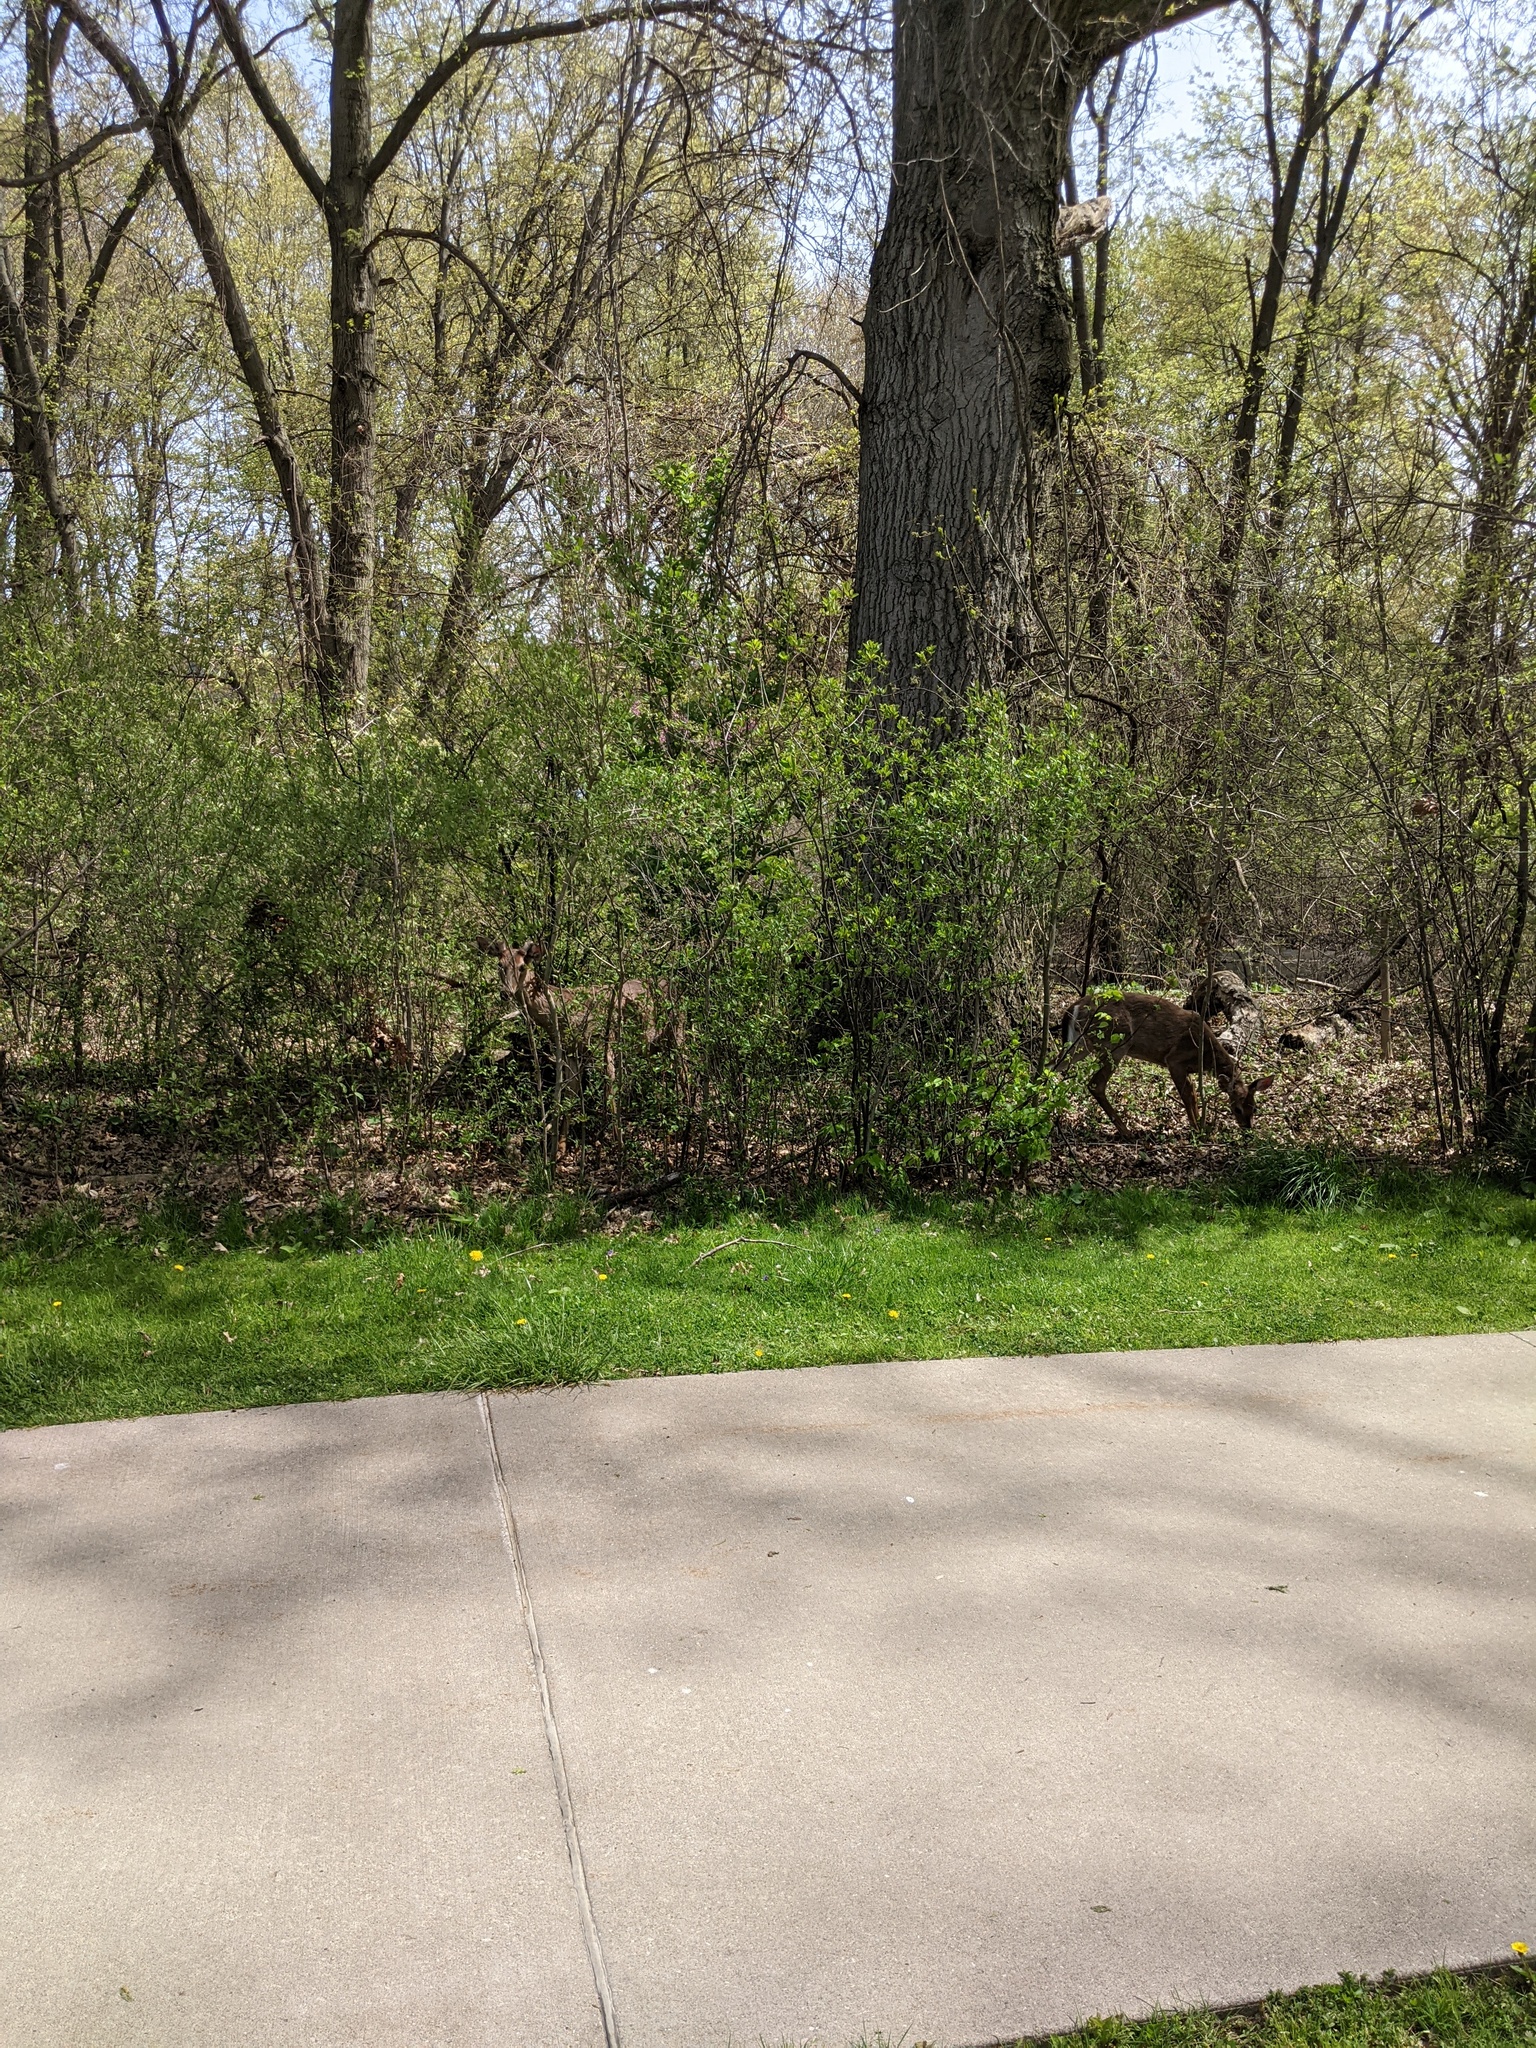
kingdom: Animalia
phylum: Chordata
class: Mammalia
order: Artiodactyla
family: Cervidae
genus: Odocoileus
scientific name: Odocoileus virginianus
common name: White-tailed deer
